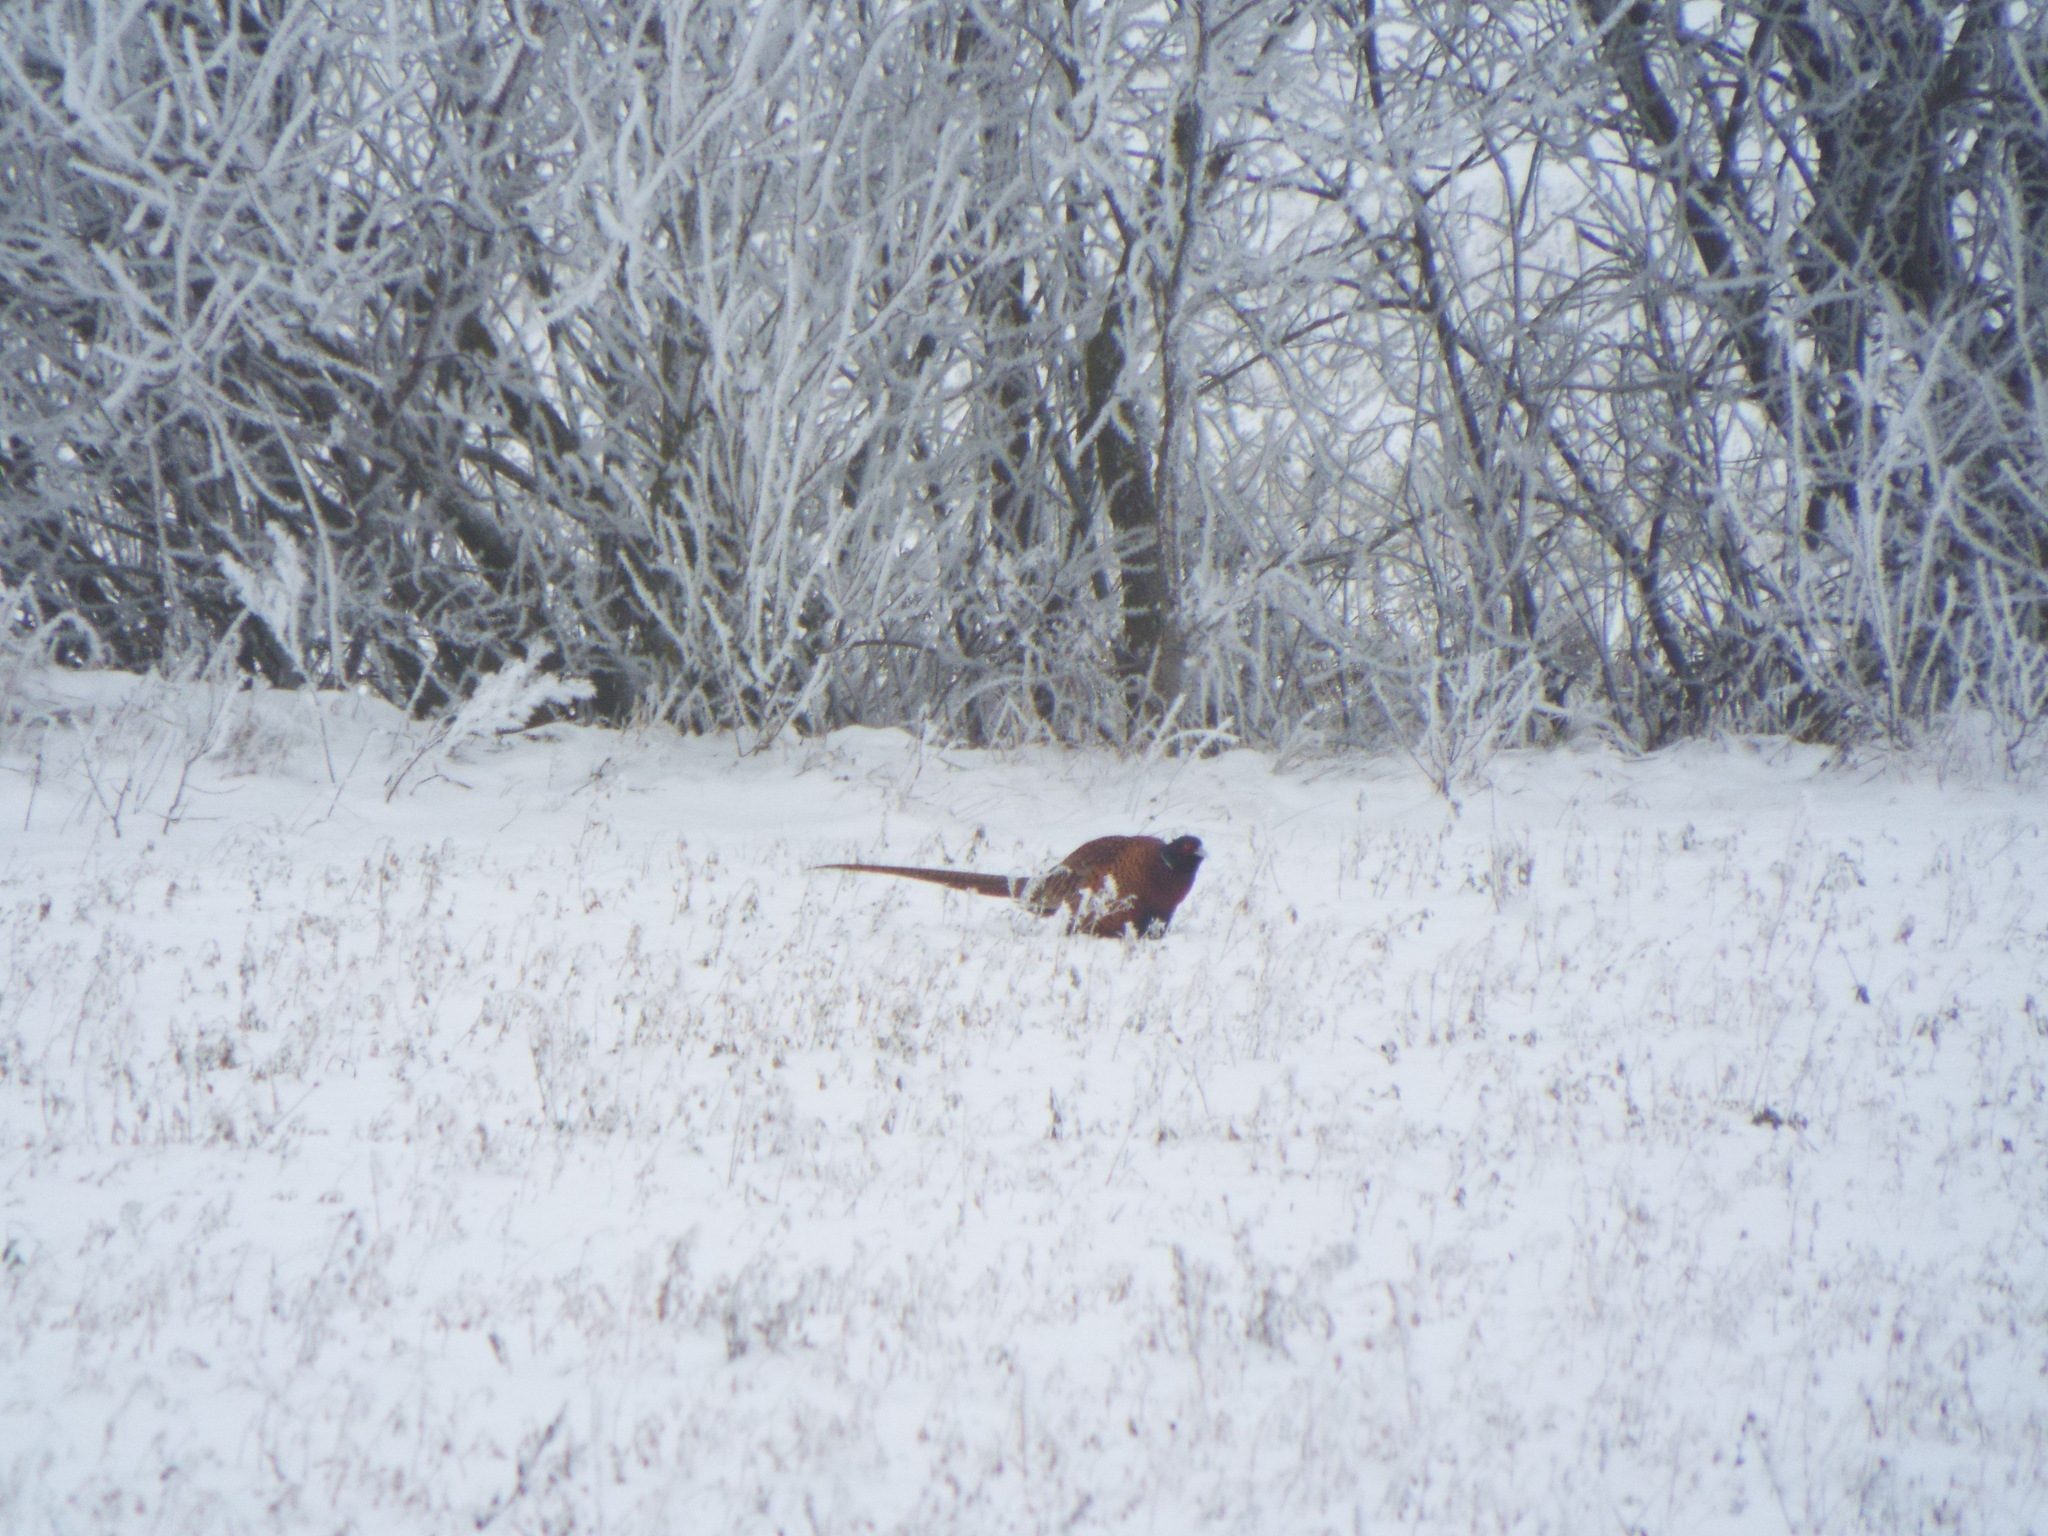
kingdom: Animalia
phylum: Chordata
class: Aves
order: Galliformes
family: Phasianidae
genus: Phasianus
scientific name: Phasianus colchicus
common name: Common pheasant
